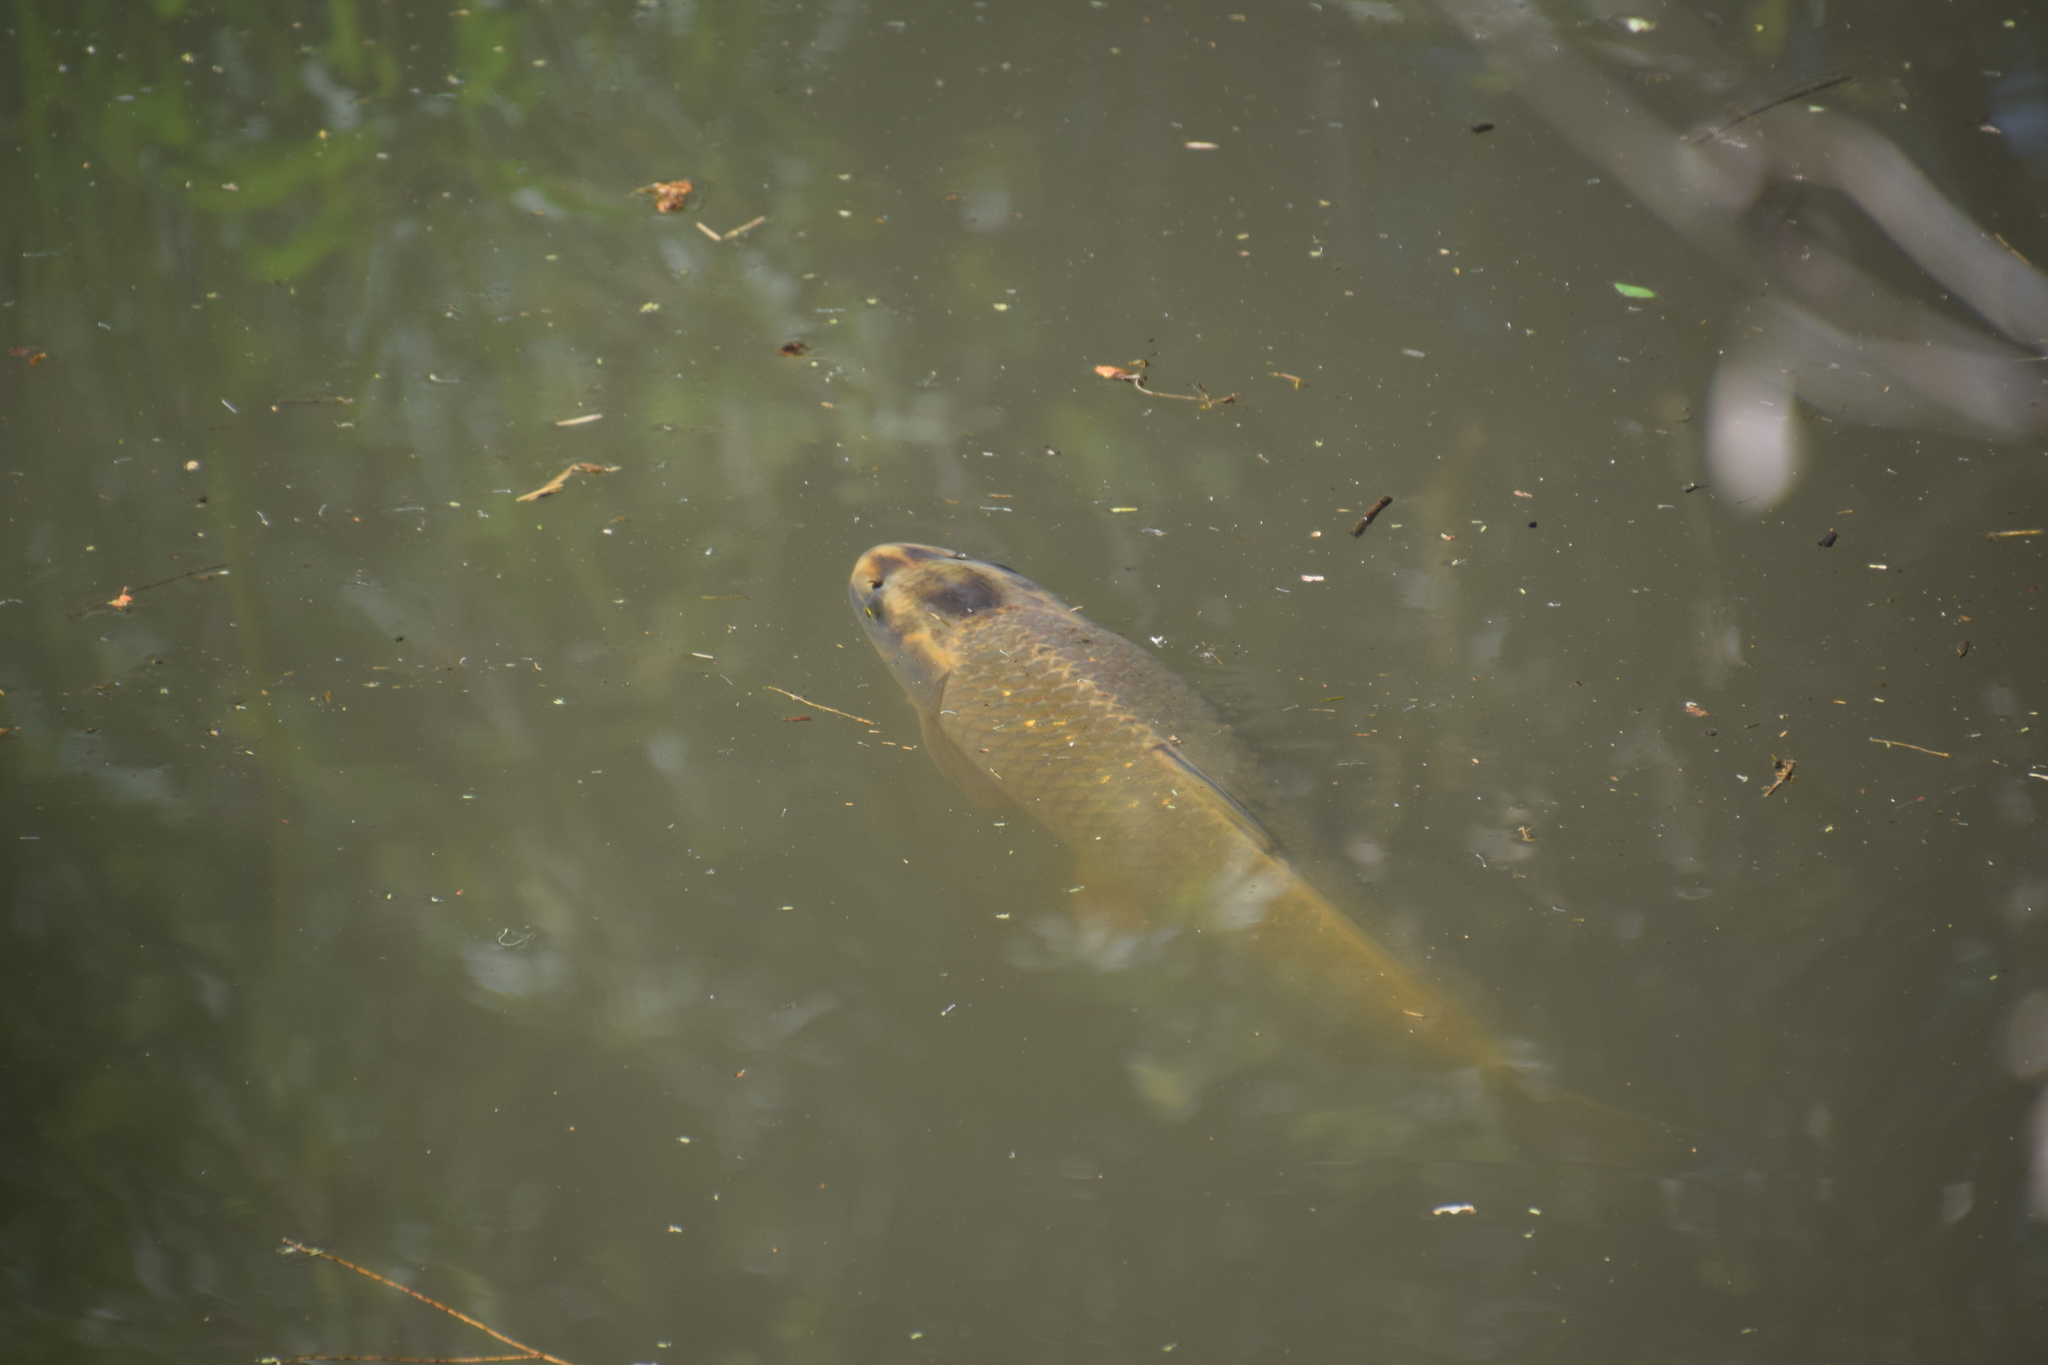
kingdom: Animalia
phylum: Chordata
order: Cypriniformes
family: Cyprinidae
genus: Cyprinus
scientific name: Cyprinus carpio
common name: Common carp
